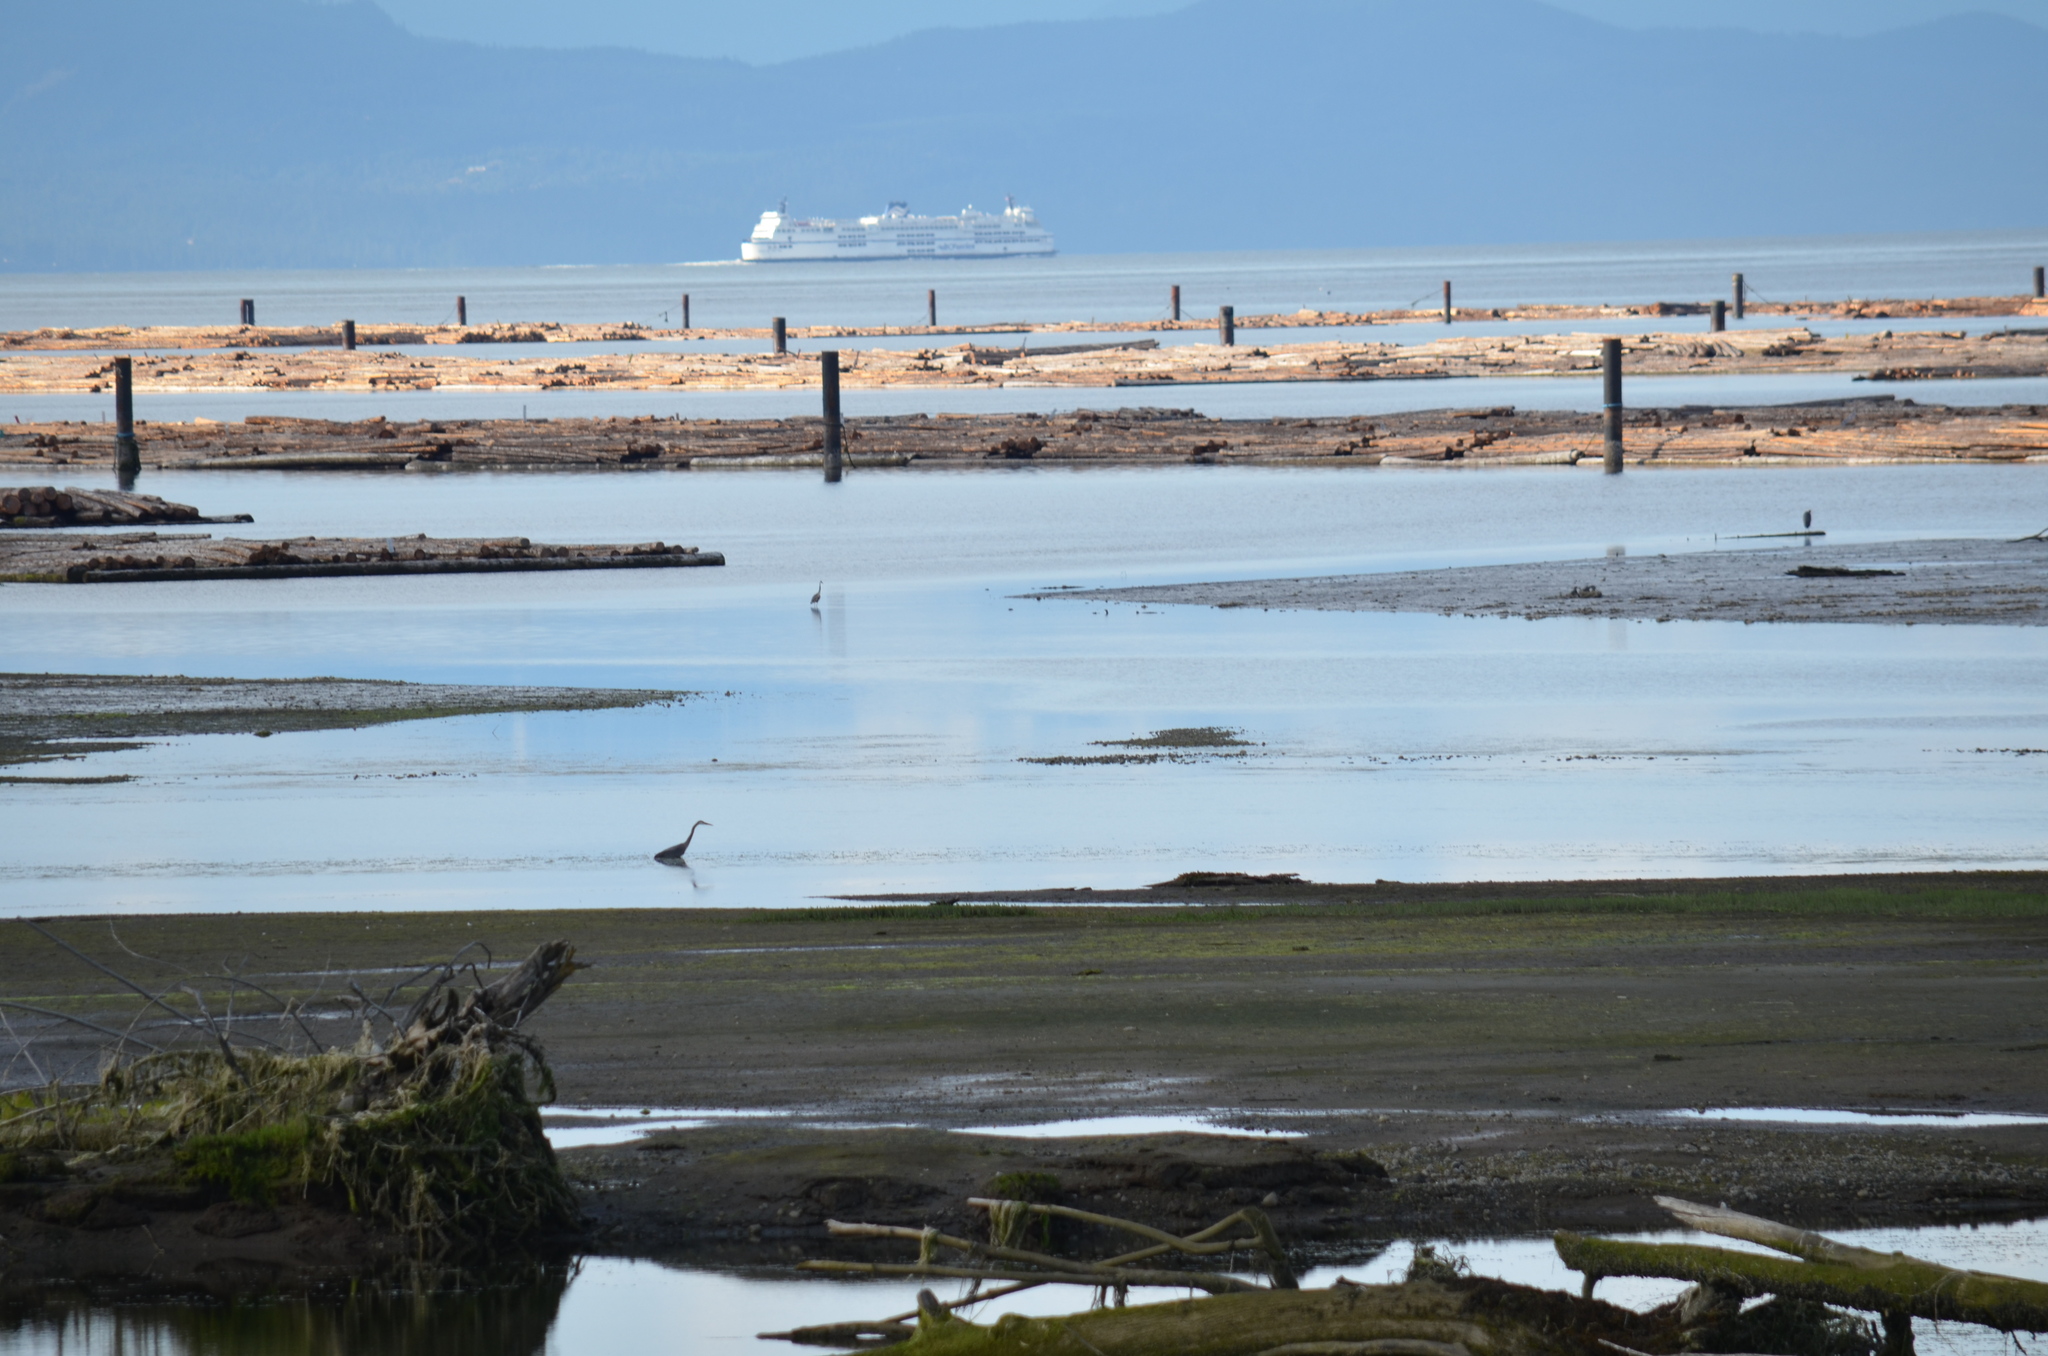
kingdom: Animalia
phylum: Chordata
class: Aves
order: Pelecaniformes
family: Ardeidae
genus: Ardea
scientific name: Ardea herodias
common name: Great blue heron
